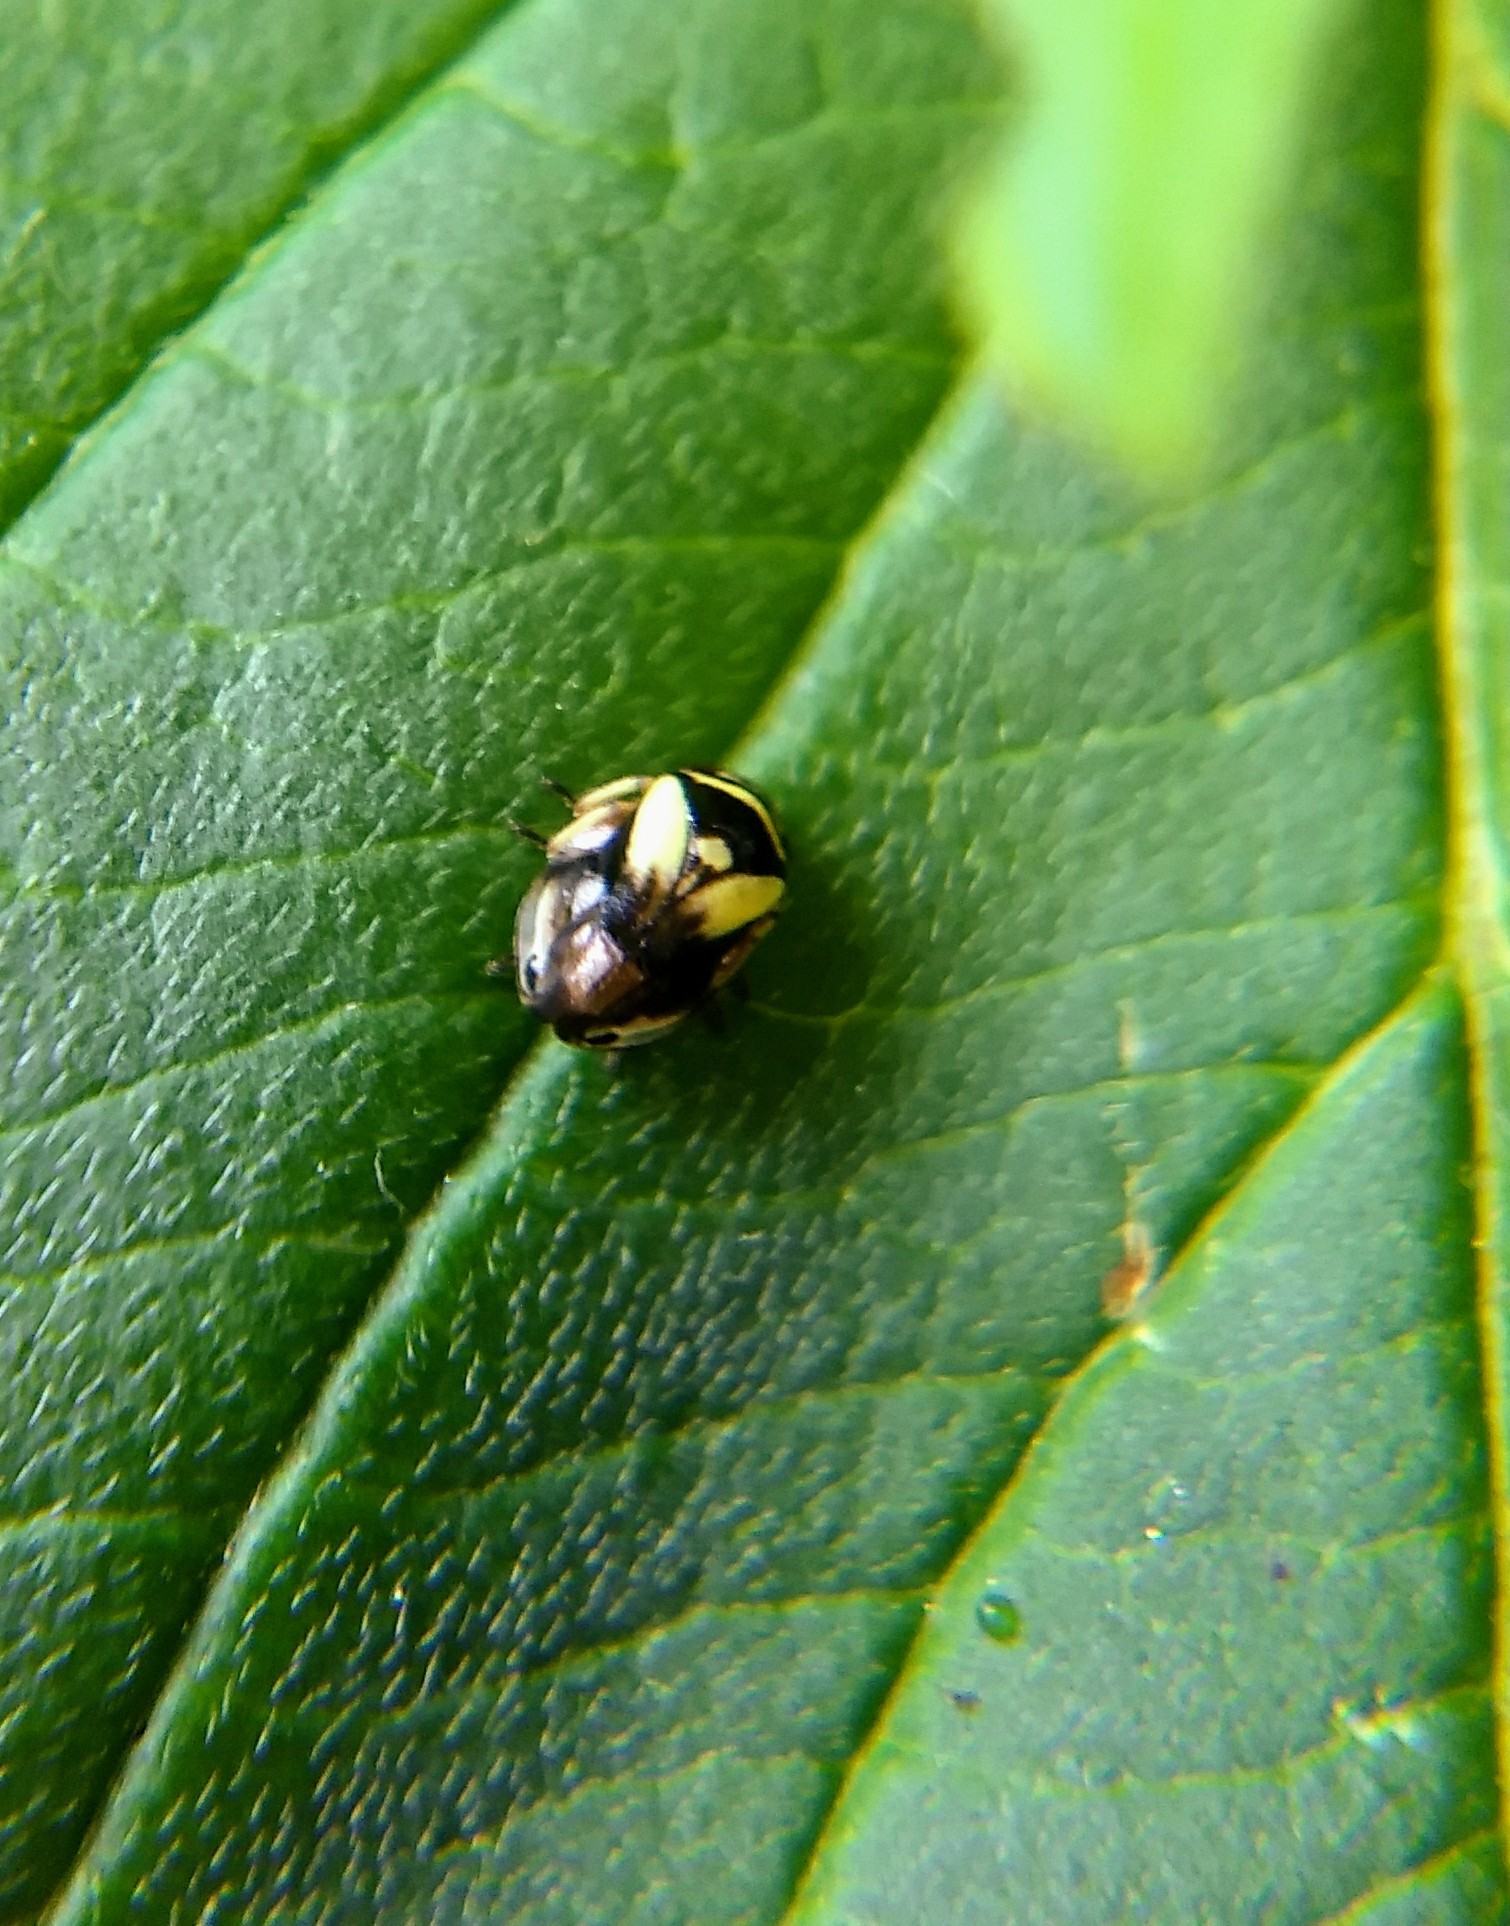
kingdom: Animalia
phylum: Arthropoda
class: Insecta
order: Hemiptera
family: Clastopteridae
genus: Clastoptera
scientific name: Clastoptera proteus
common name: Dogwood spittlebug
